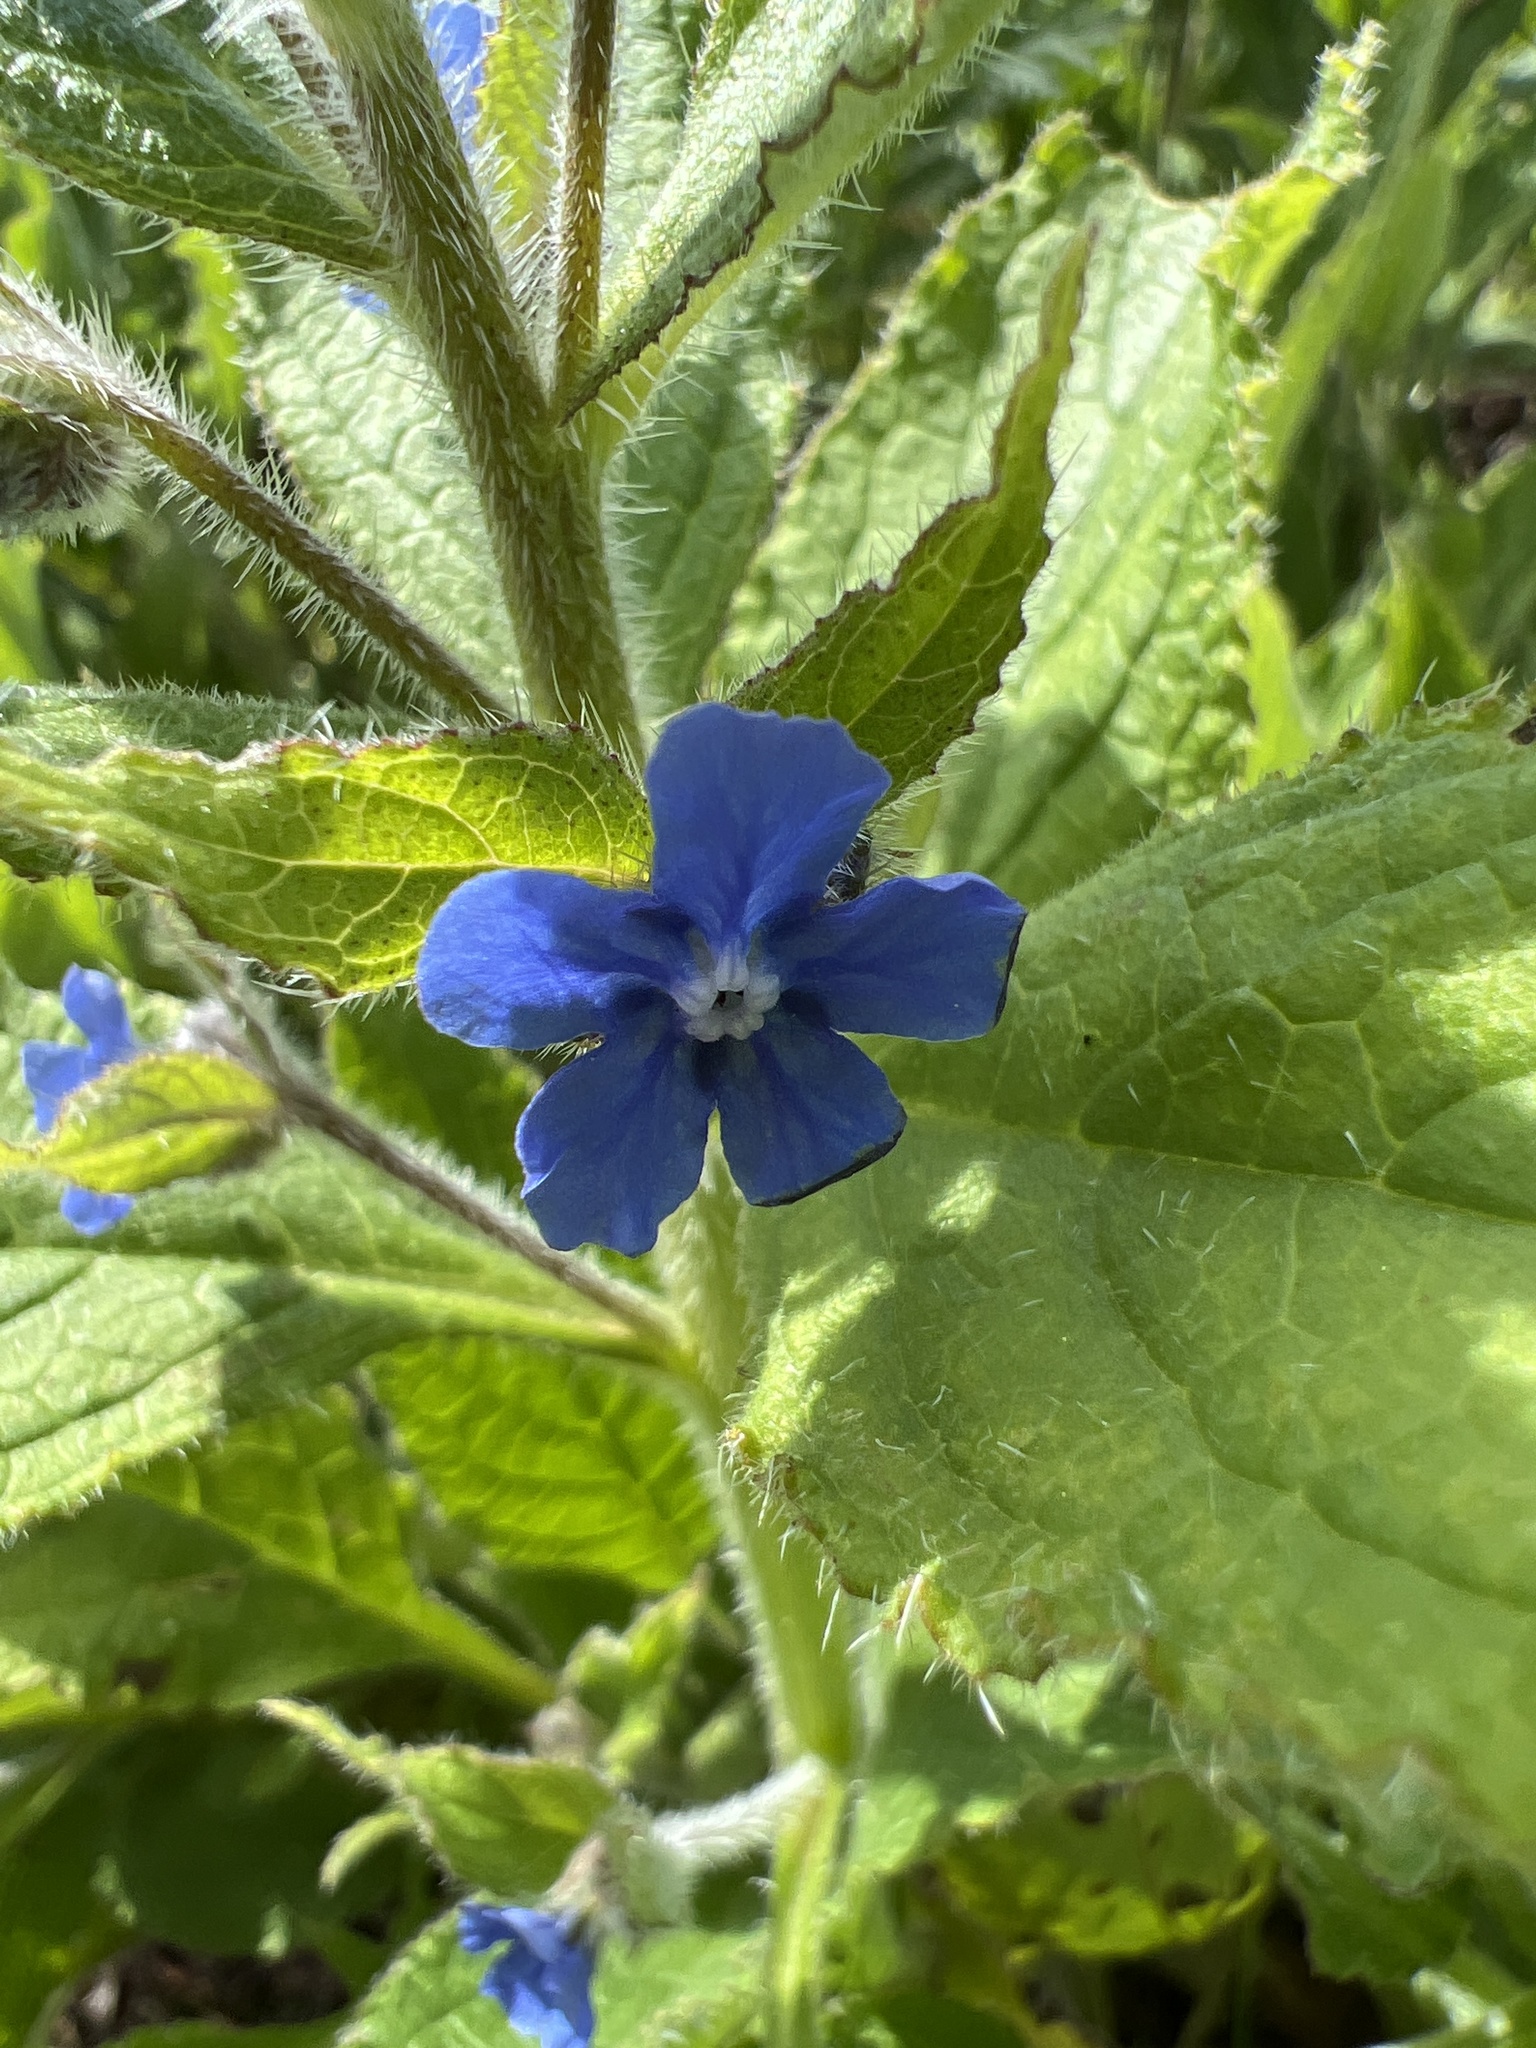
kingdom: Plantae
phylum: Tracheophyta
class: Magnoliopsida
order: Boraginales
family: Boraginaceae
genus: Pentaglottis
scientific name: Pentaglottis sempervirens
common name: Green alkanet
